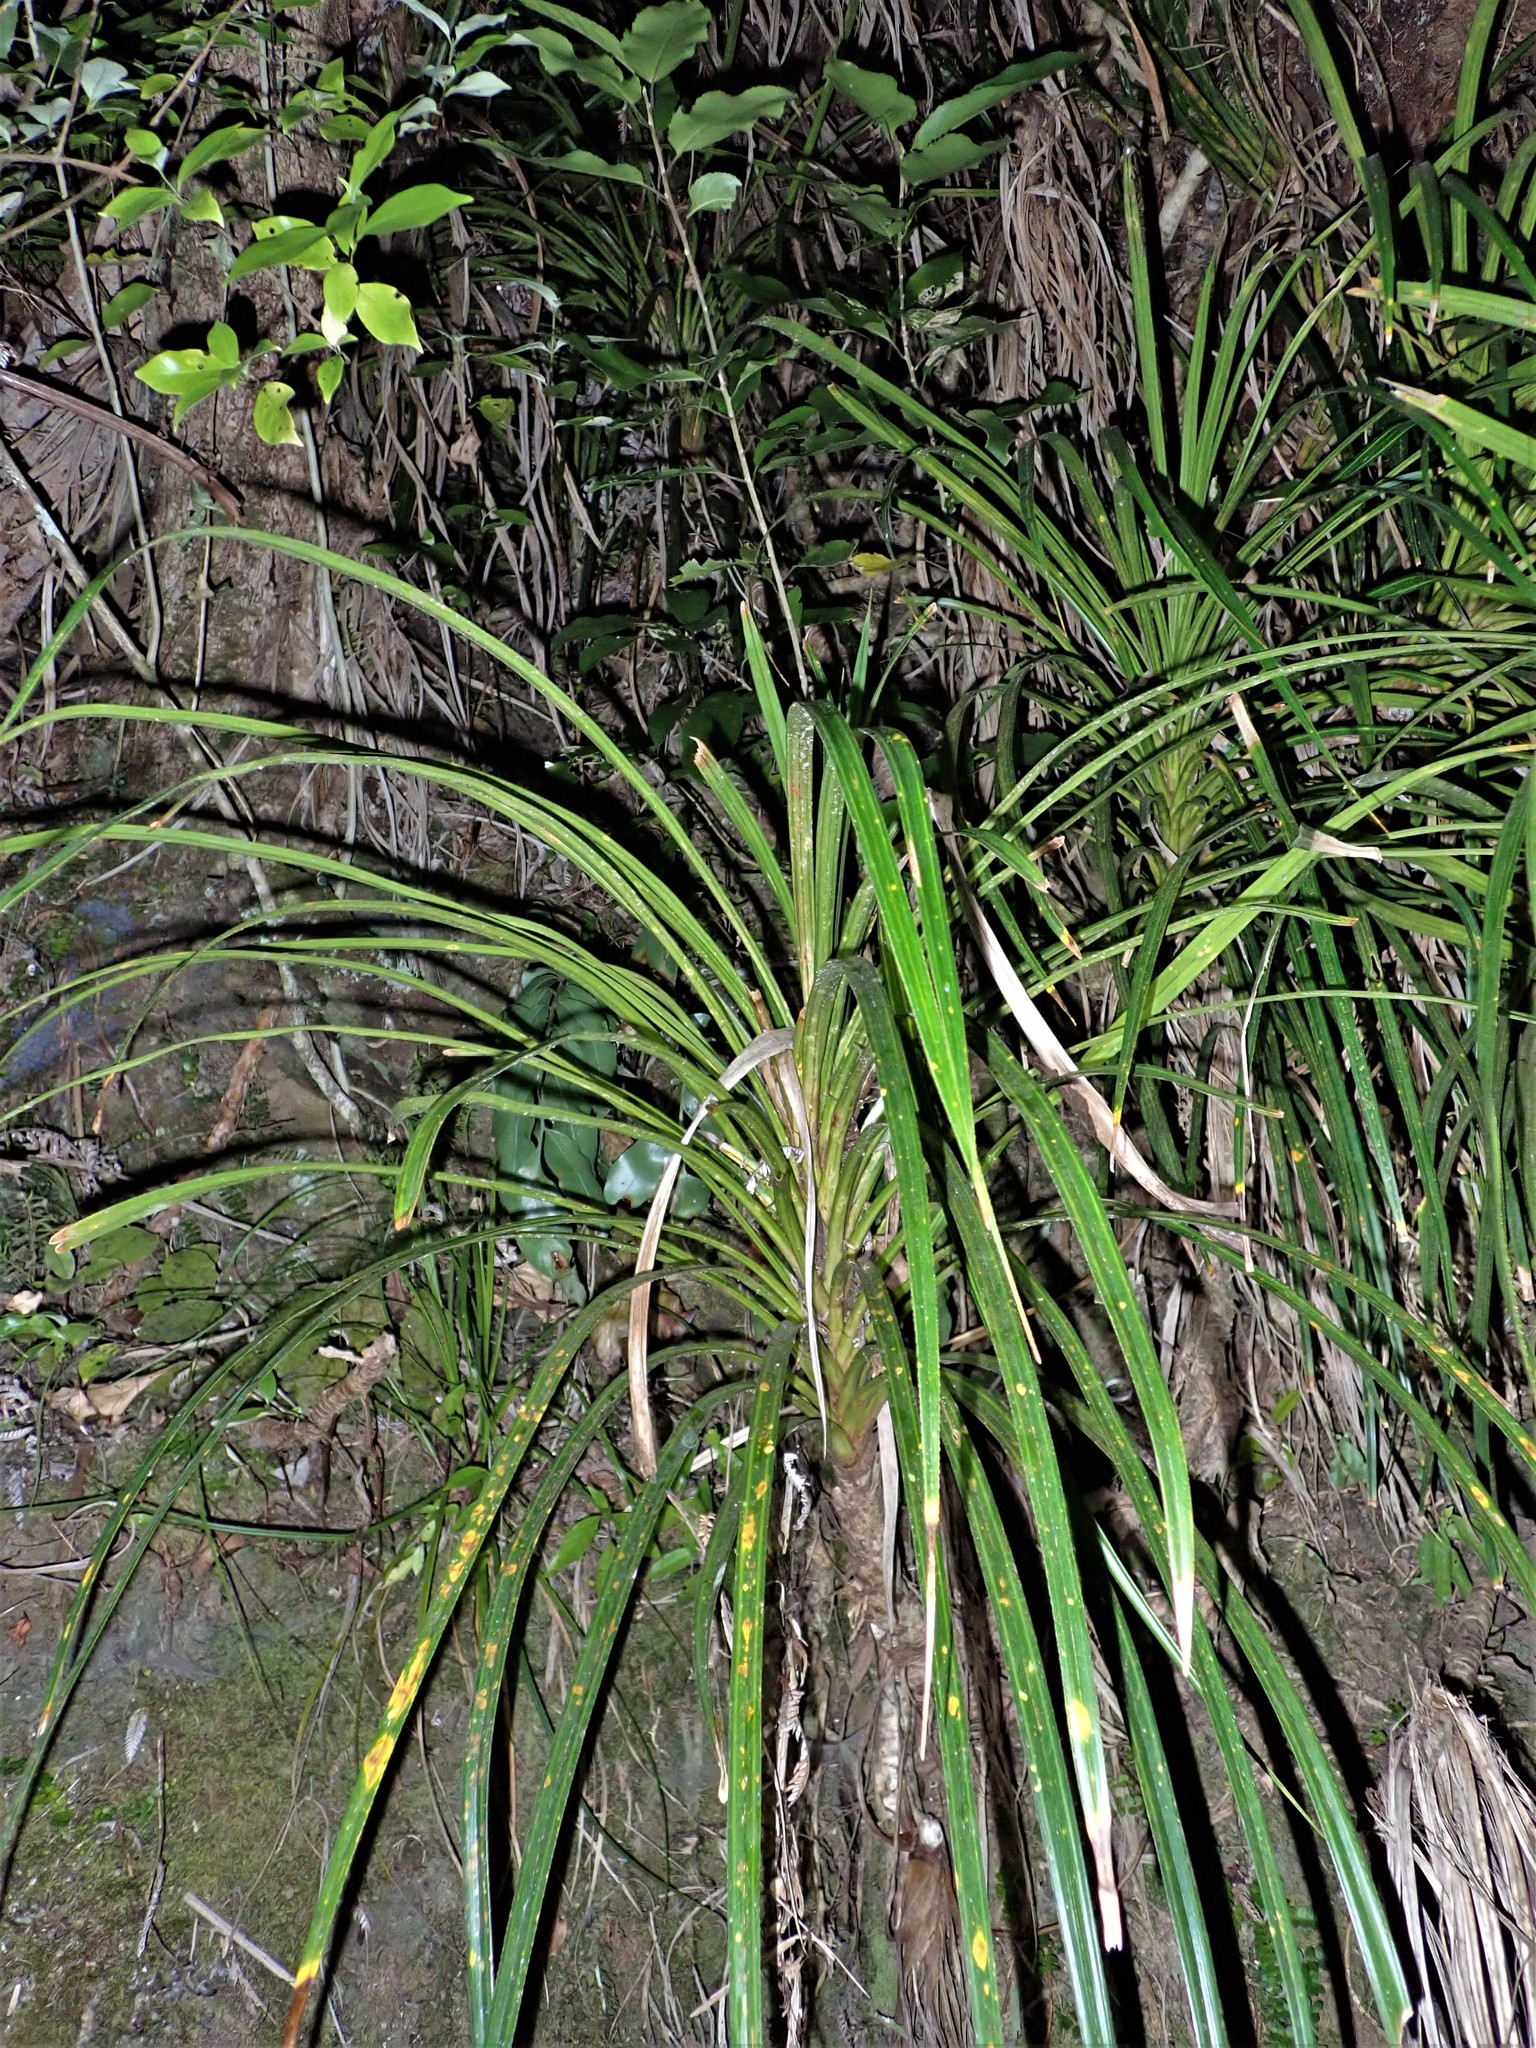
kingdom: Plantae
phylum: Tracheophyta
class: Liliopsida
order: Pandanales
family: Pandanaceae
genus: Freycinetia
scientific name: Freycinetia banksii
